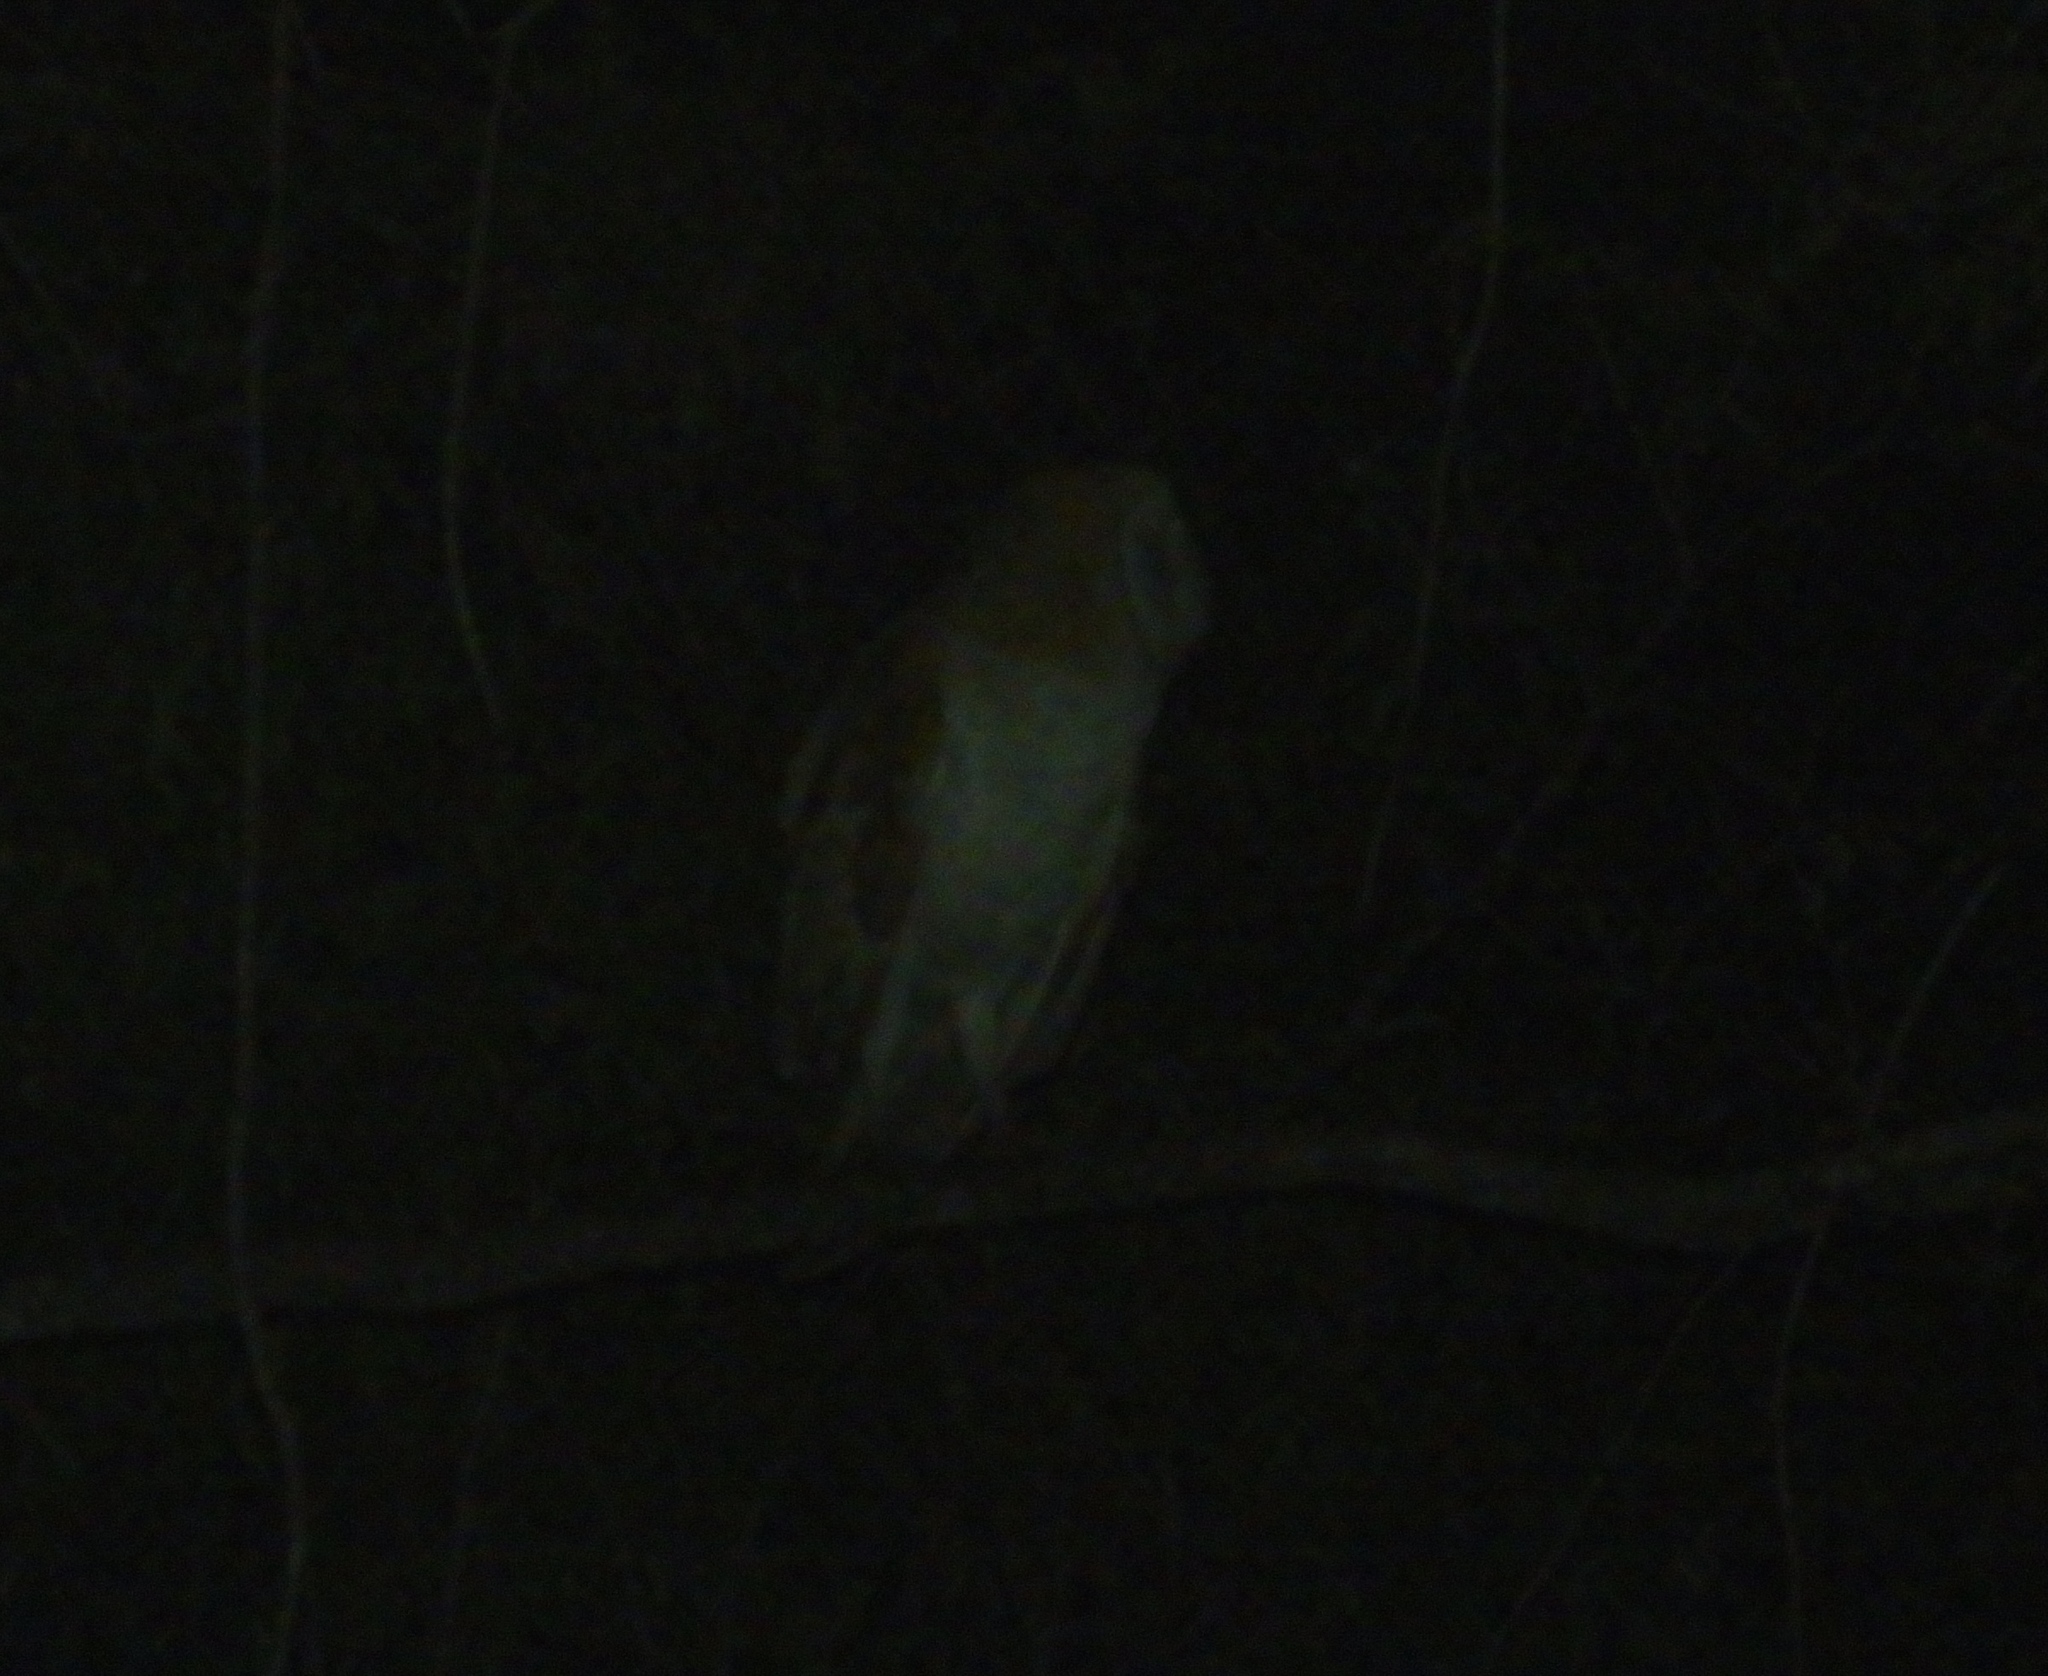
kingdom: Animalia
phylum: Chordata
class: Aves
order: Strigiformes
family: Tytonidae
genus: Tyto
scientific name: Tyto alba
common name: Barn owl
